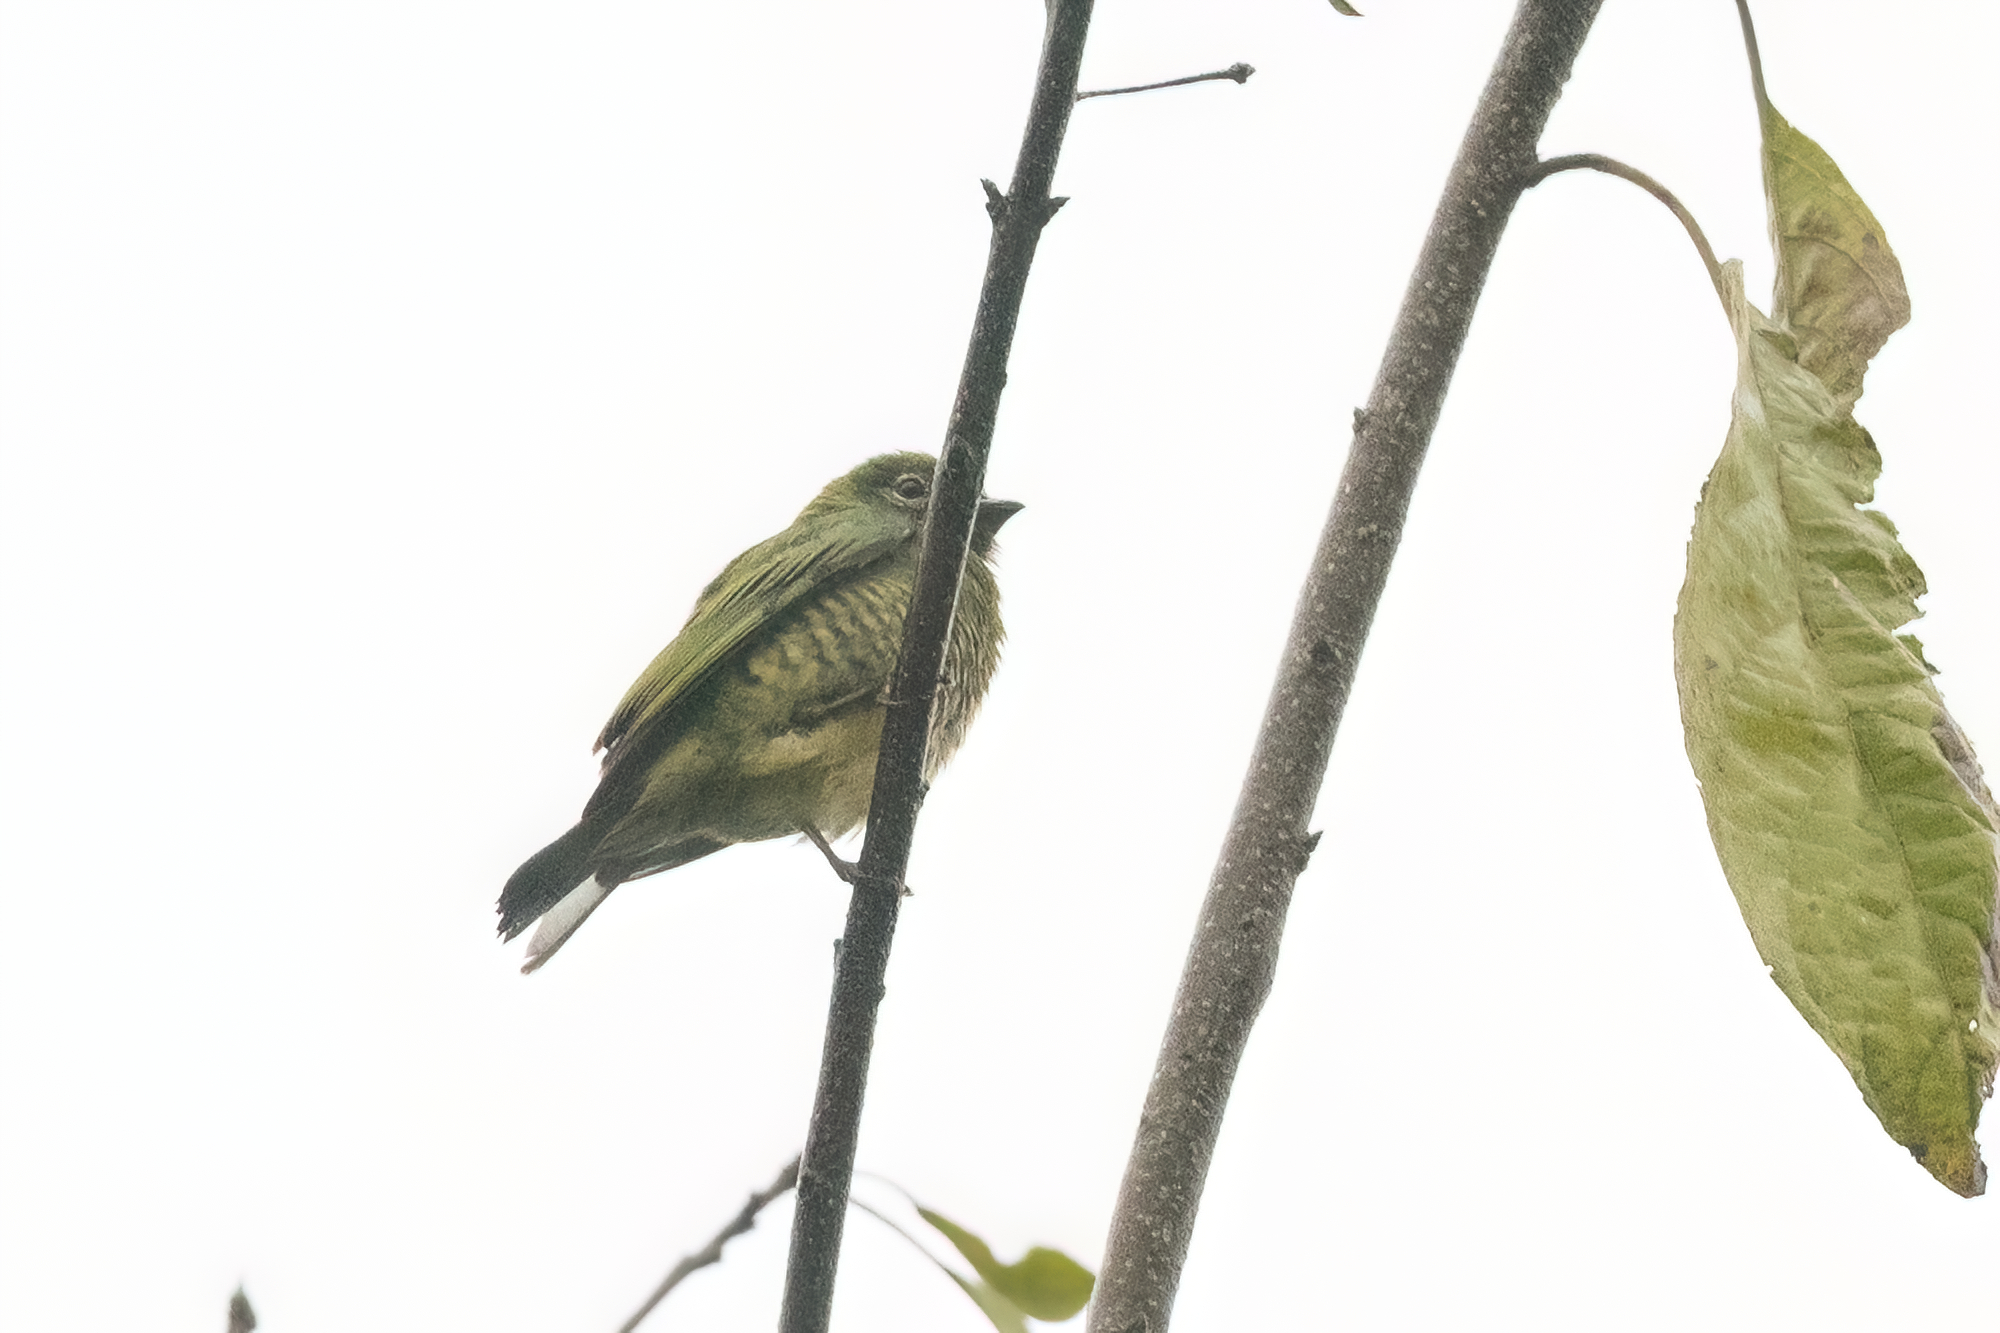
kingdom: Animalia
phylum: Chordata
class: Aves
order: Passeriformes
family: Thraupidae
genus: Tersina
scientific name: Tersina viridis
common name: Swallow tanager
